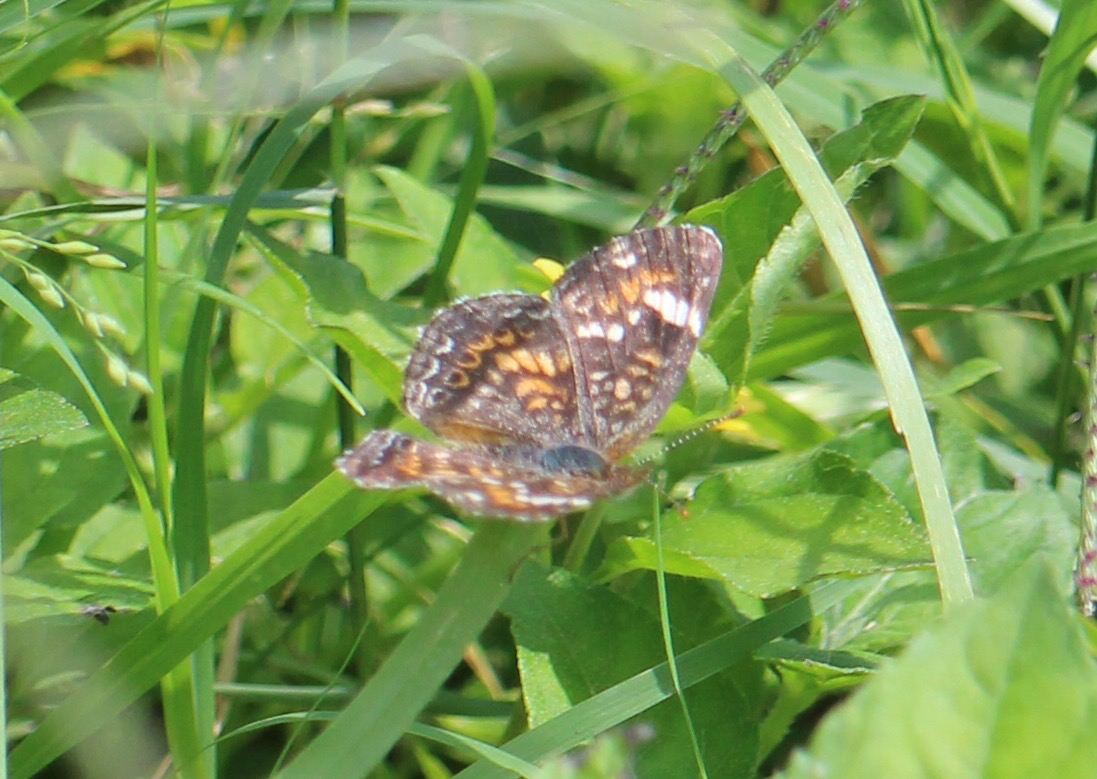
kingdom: Animalia
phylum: Arthropoda
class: Insecta
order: Lepidoptera
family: Nymphalidae
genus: Phyciodes
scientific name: Phyciodes phaon
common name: Phaon crescent
